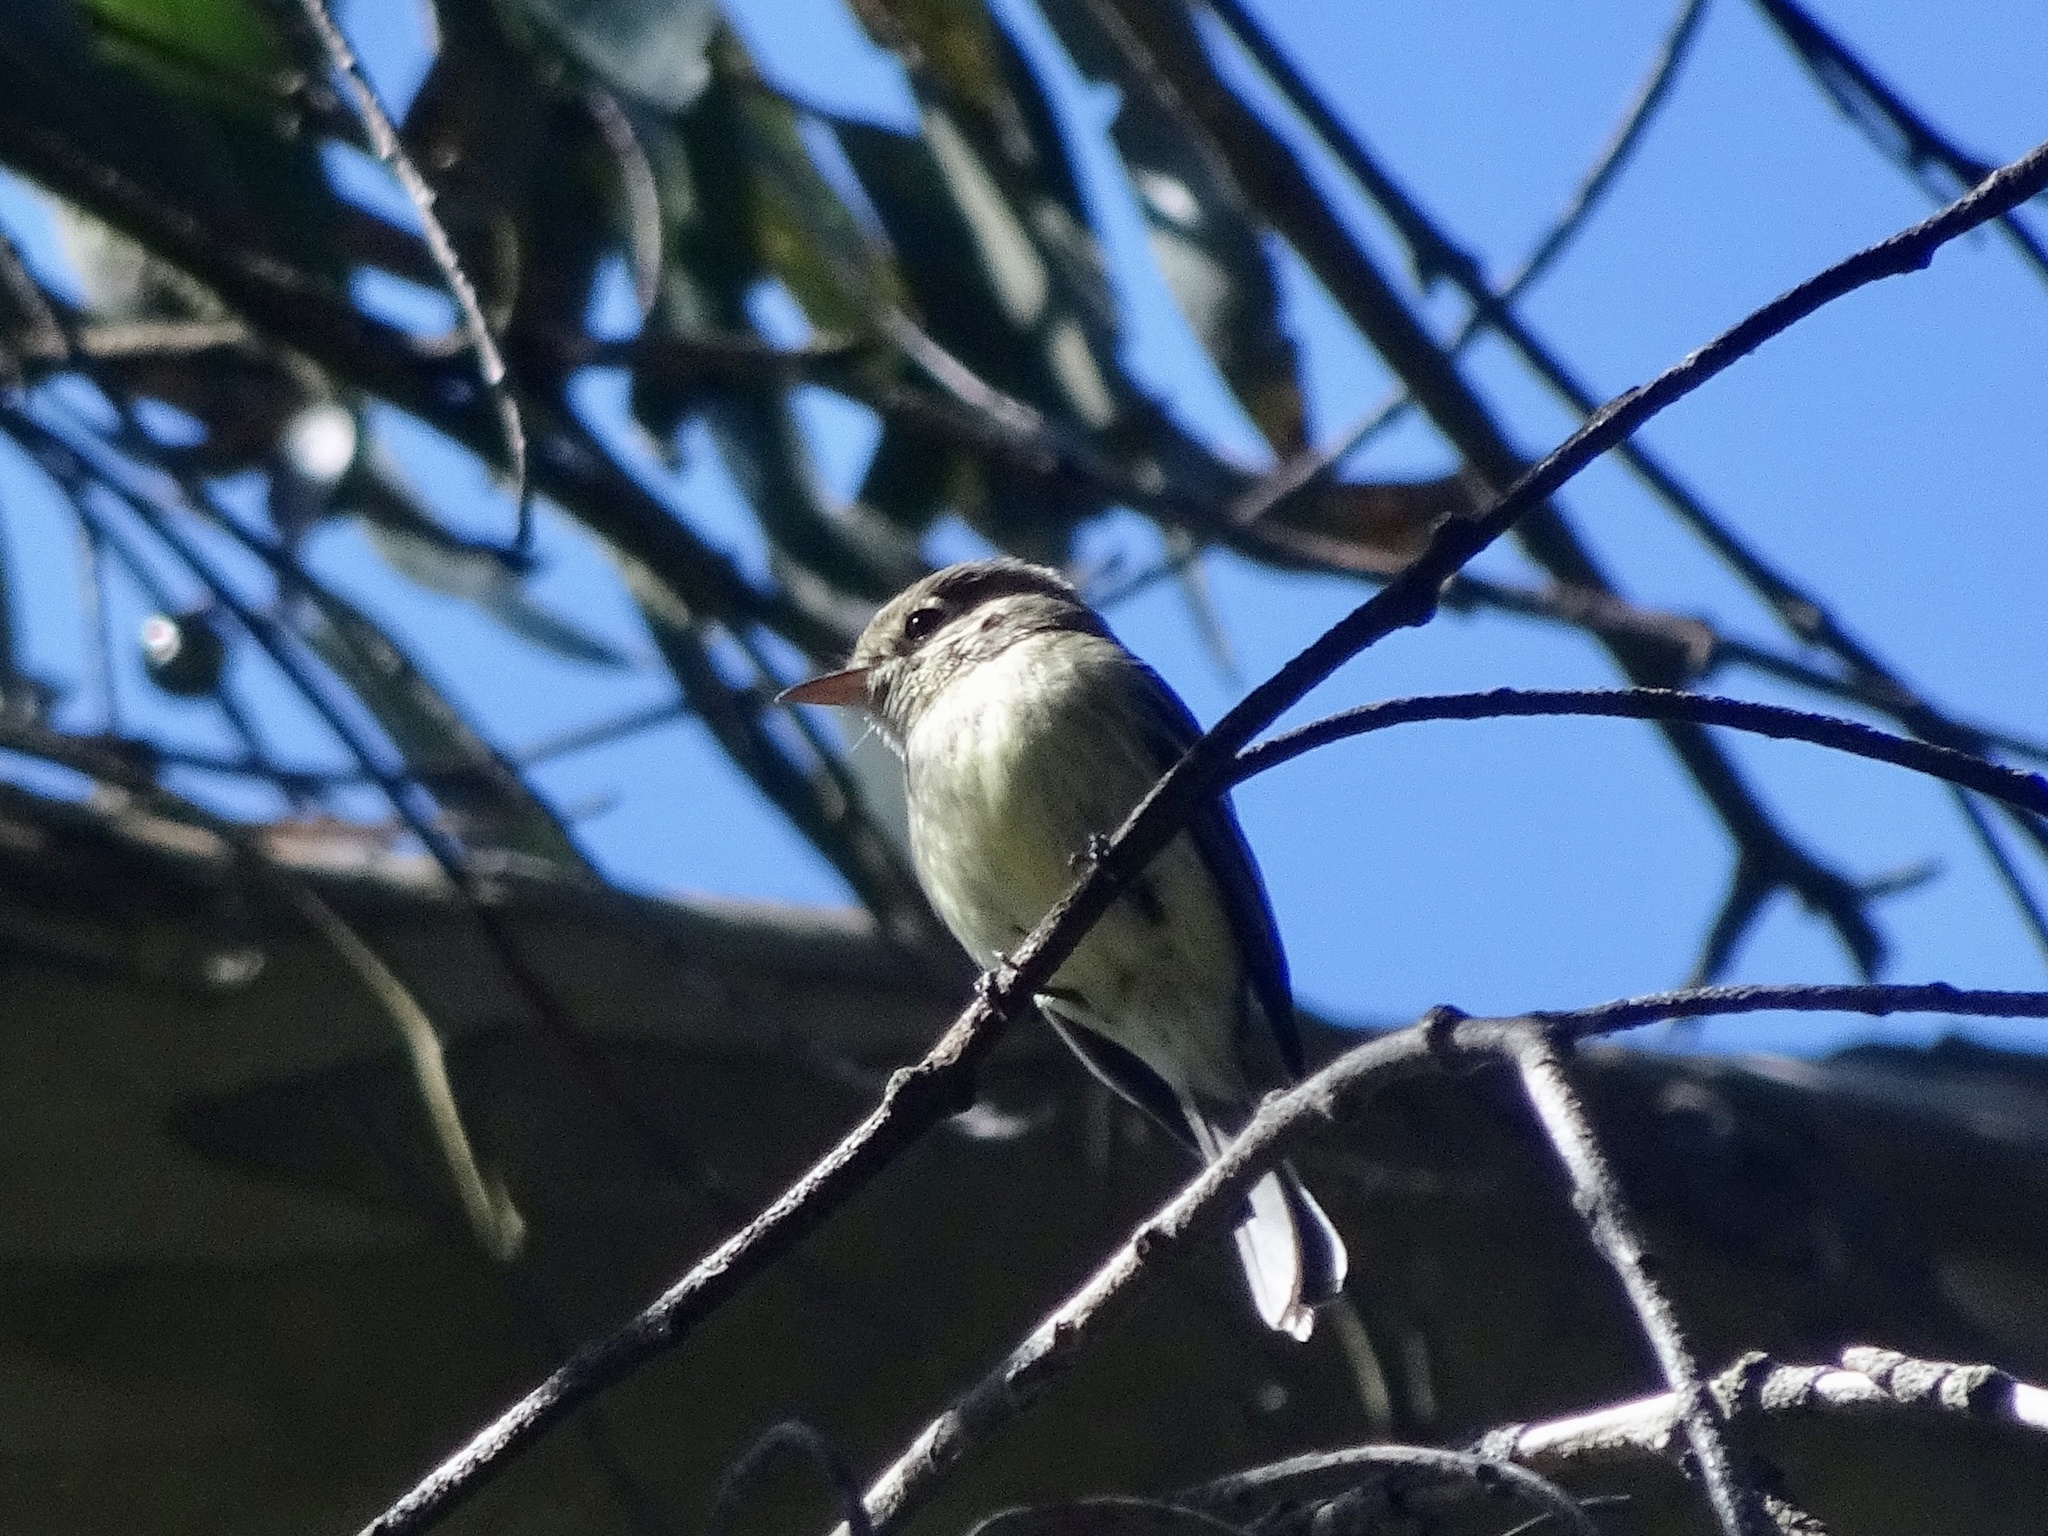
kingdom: Animalia
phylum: Chordata
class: Aves
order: Passeriformes
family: Tyrannidae
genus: Empidonax
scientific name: Empidonax difficilis
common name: Pacific-slope flycatcher
